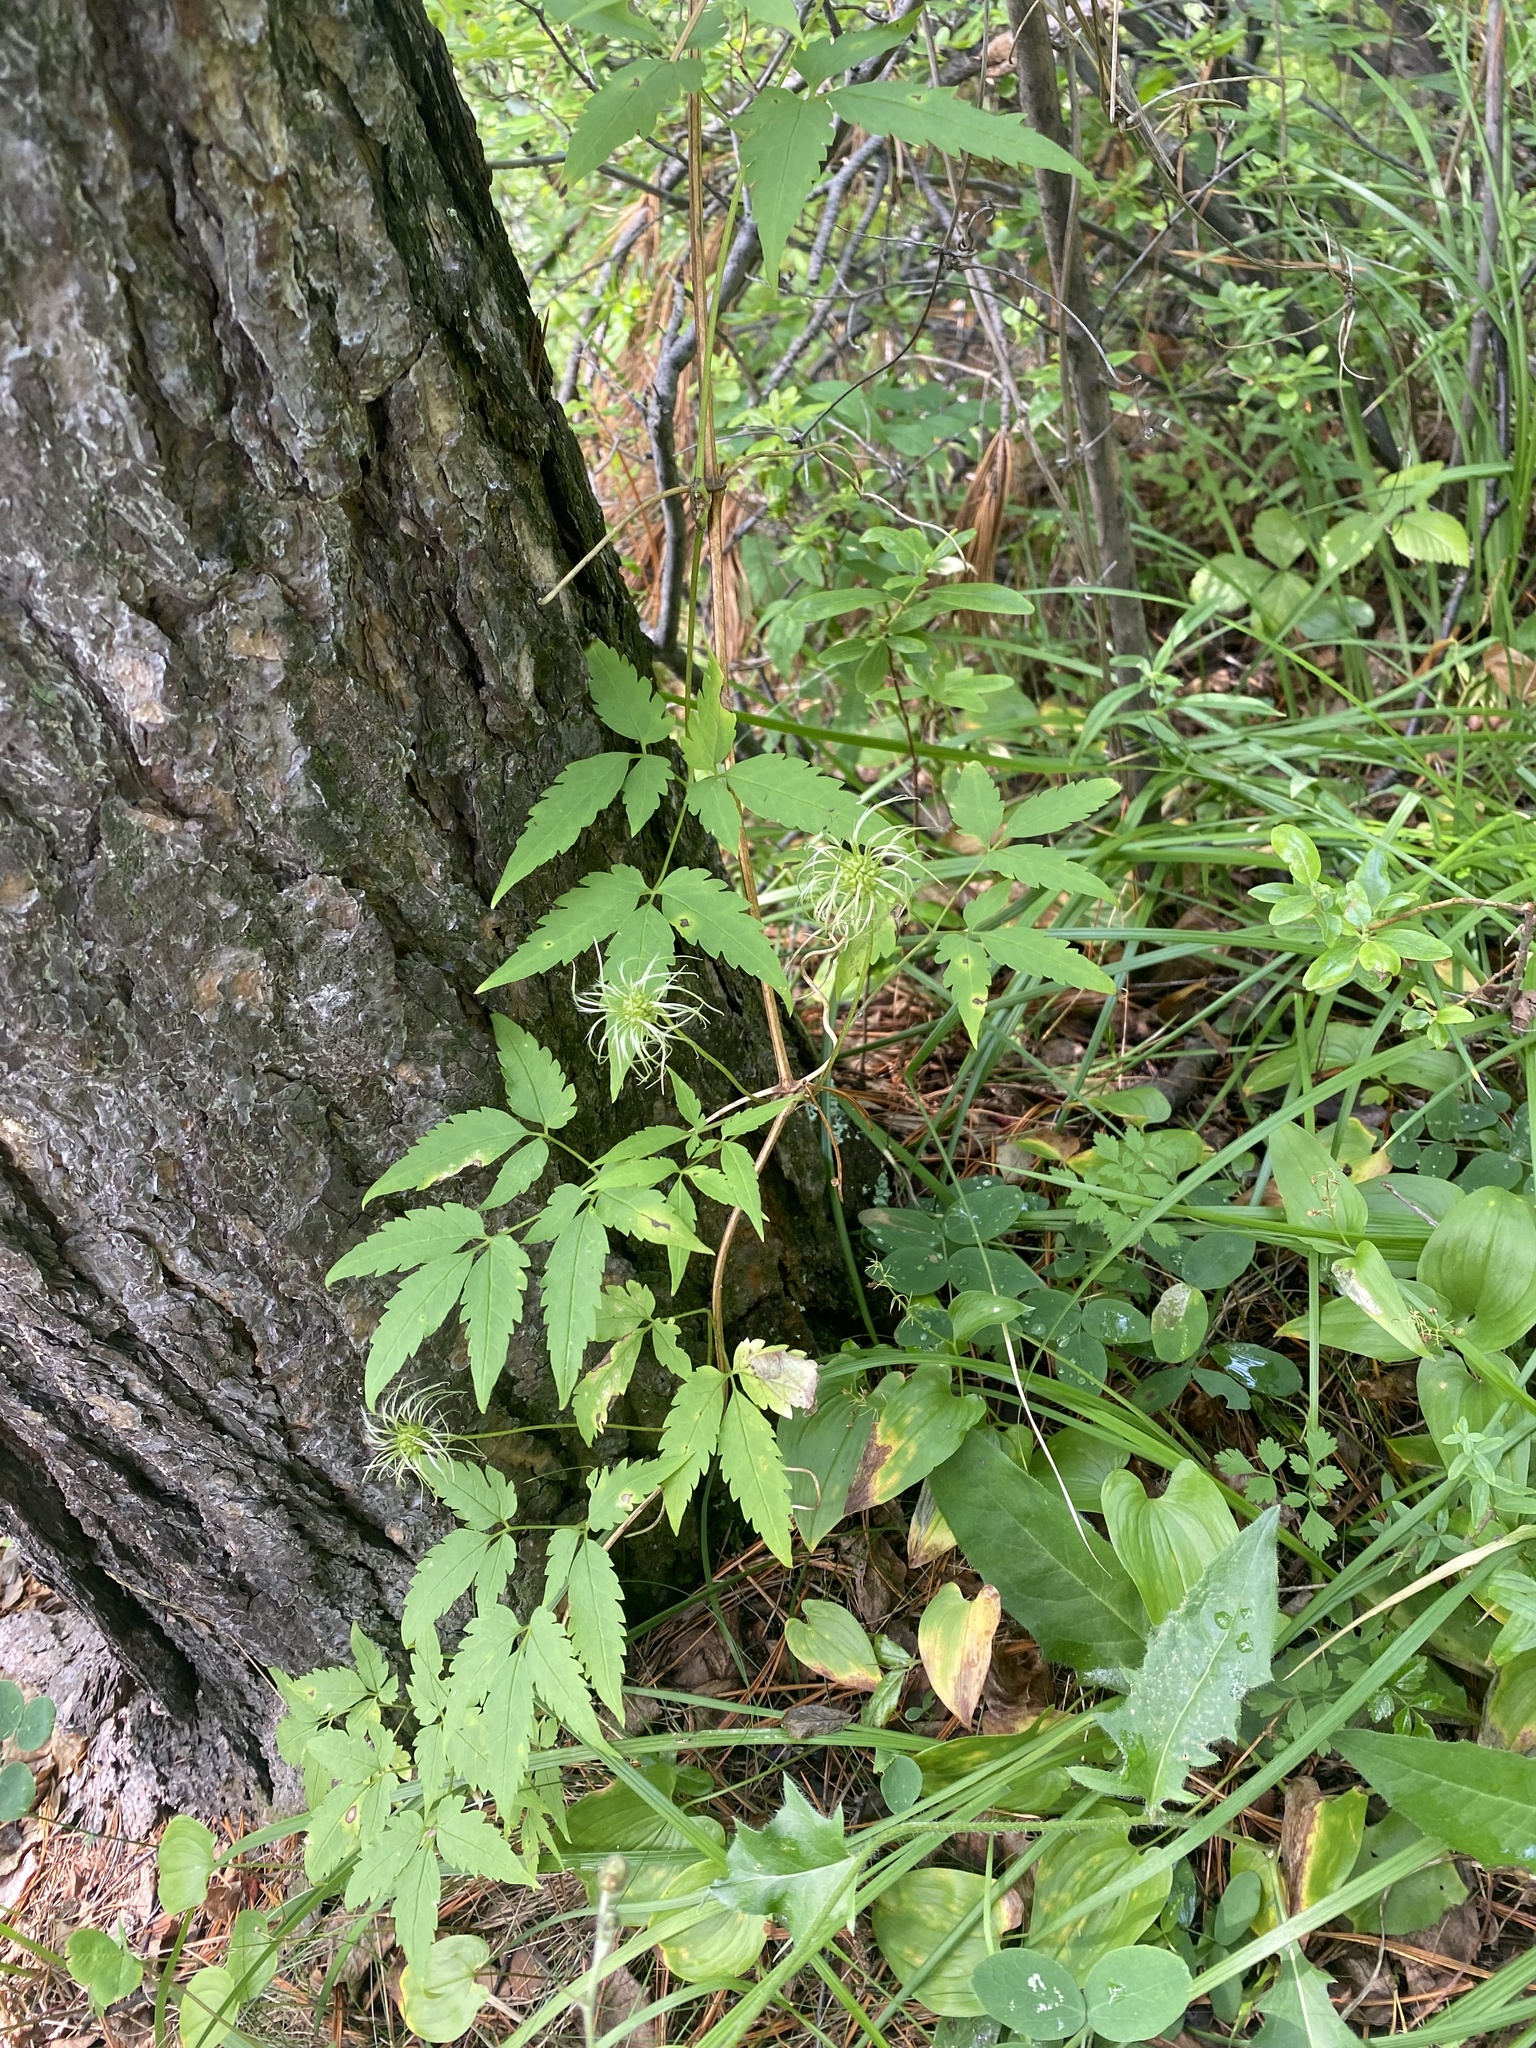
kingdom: Plantae
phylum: Tracheophyta
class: Magnoliopsida
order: Ranunculales
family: Ranunculaceae
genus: Clematis
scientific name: Clematis sibirica
